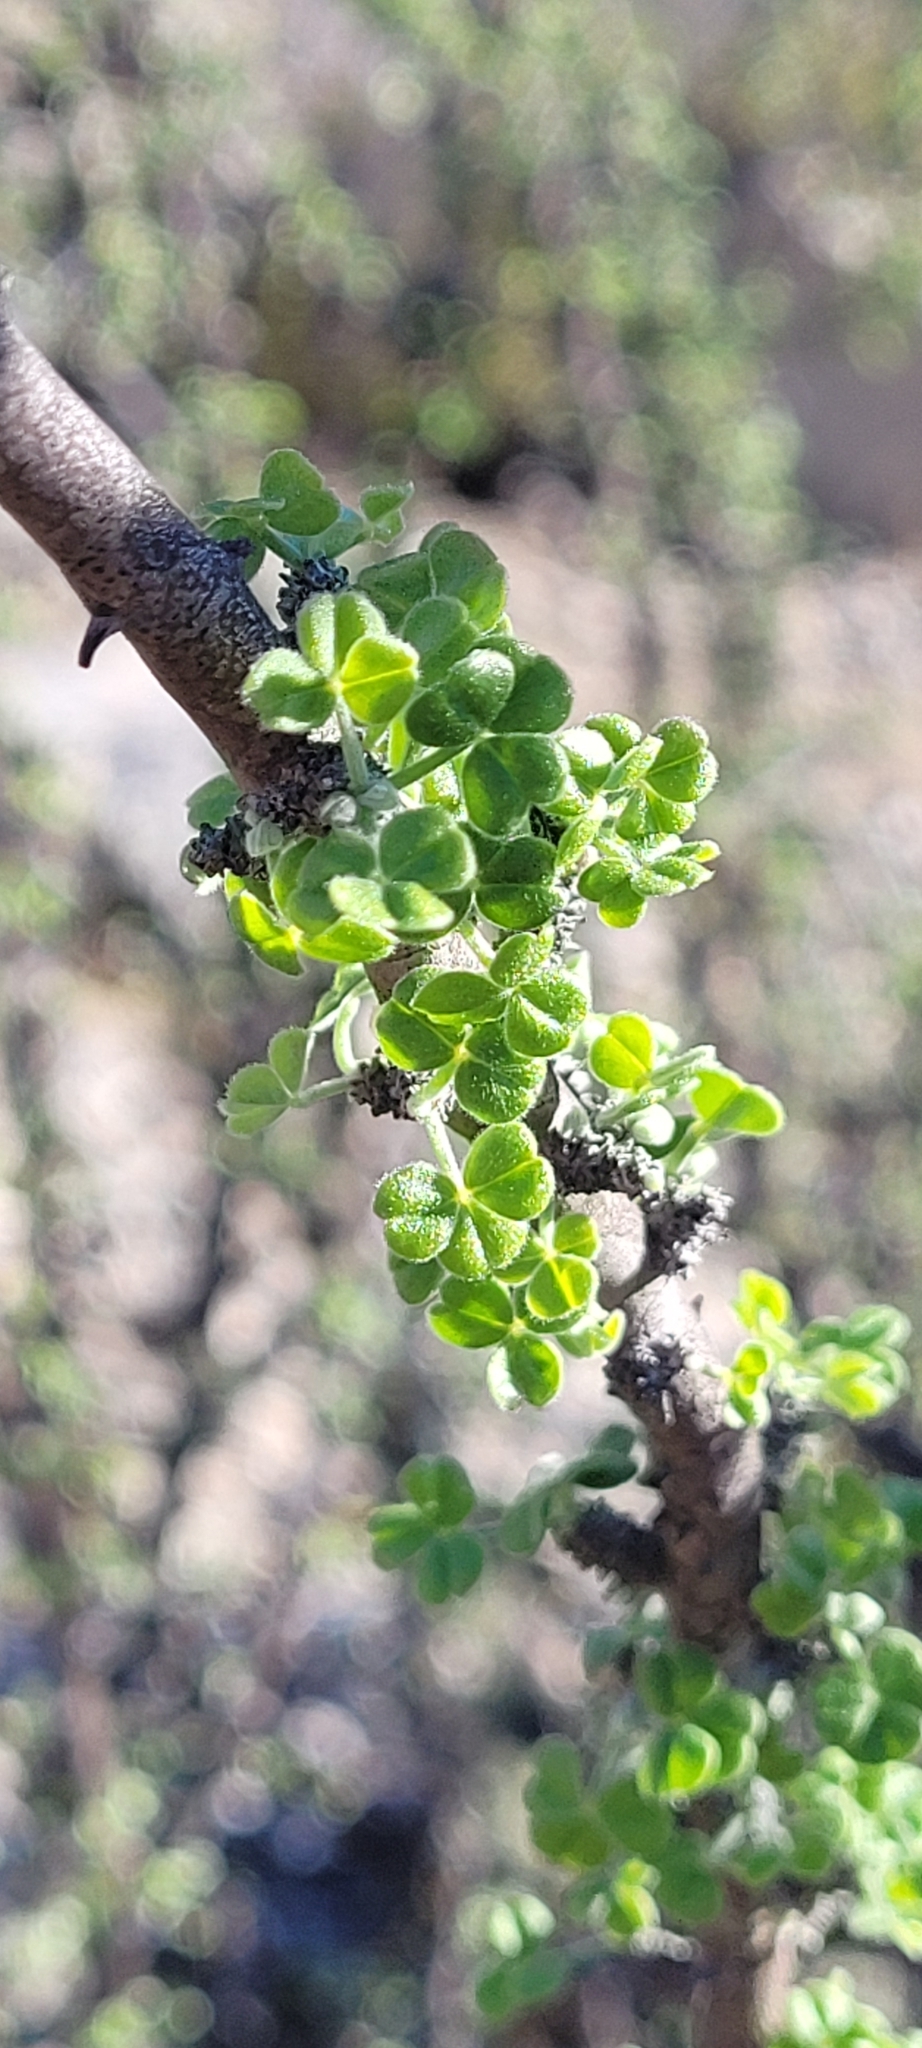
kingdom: Plantae
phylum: Tracheophyta
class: Magnoliopsida
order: Oxalidales
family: Oxalidaceae
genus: Oxalis
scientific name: Oxalis gigantea
